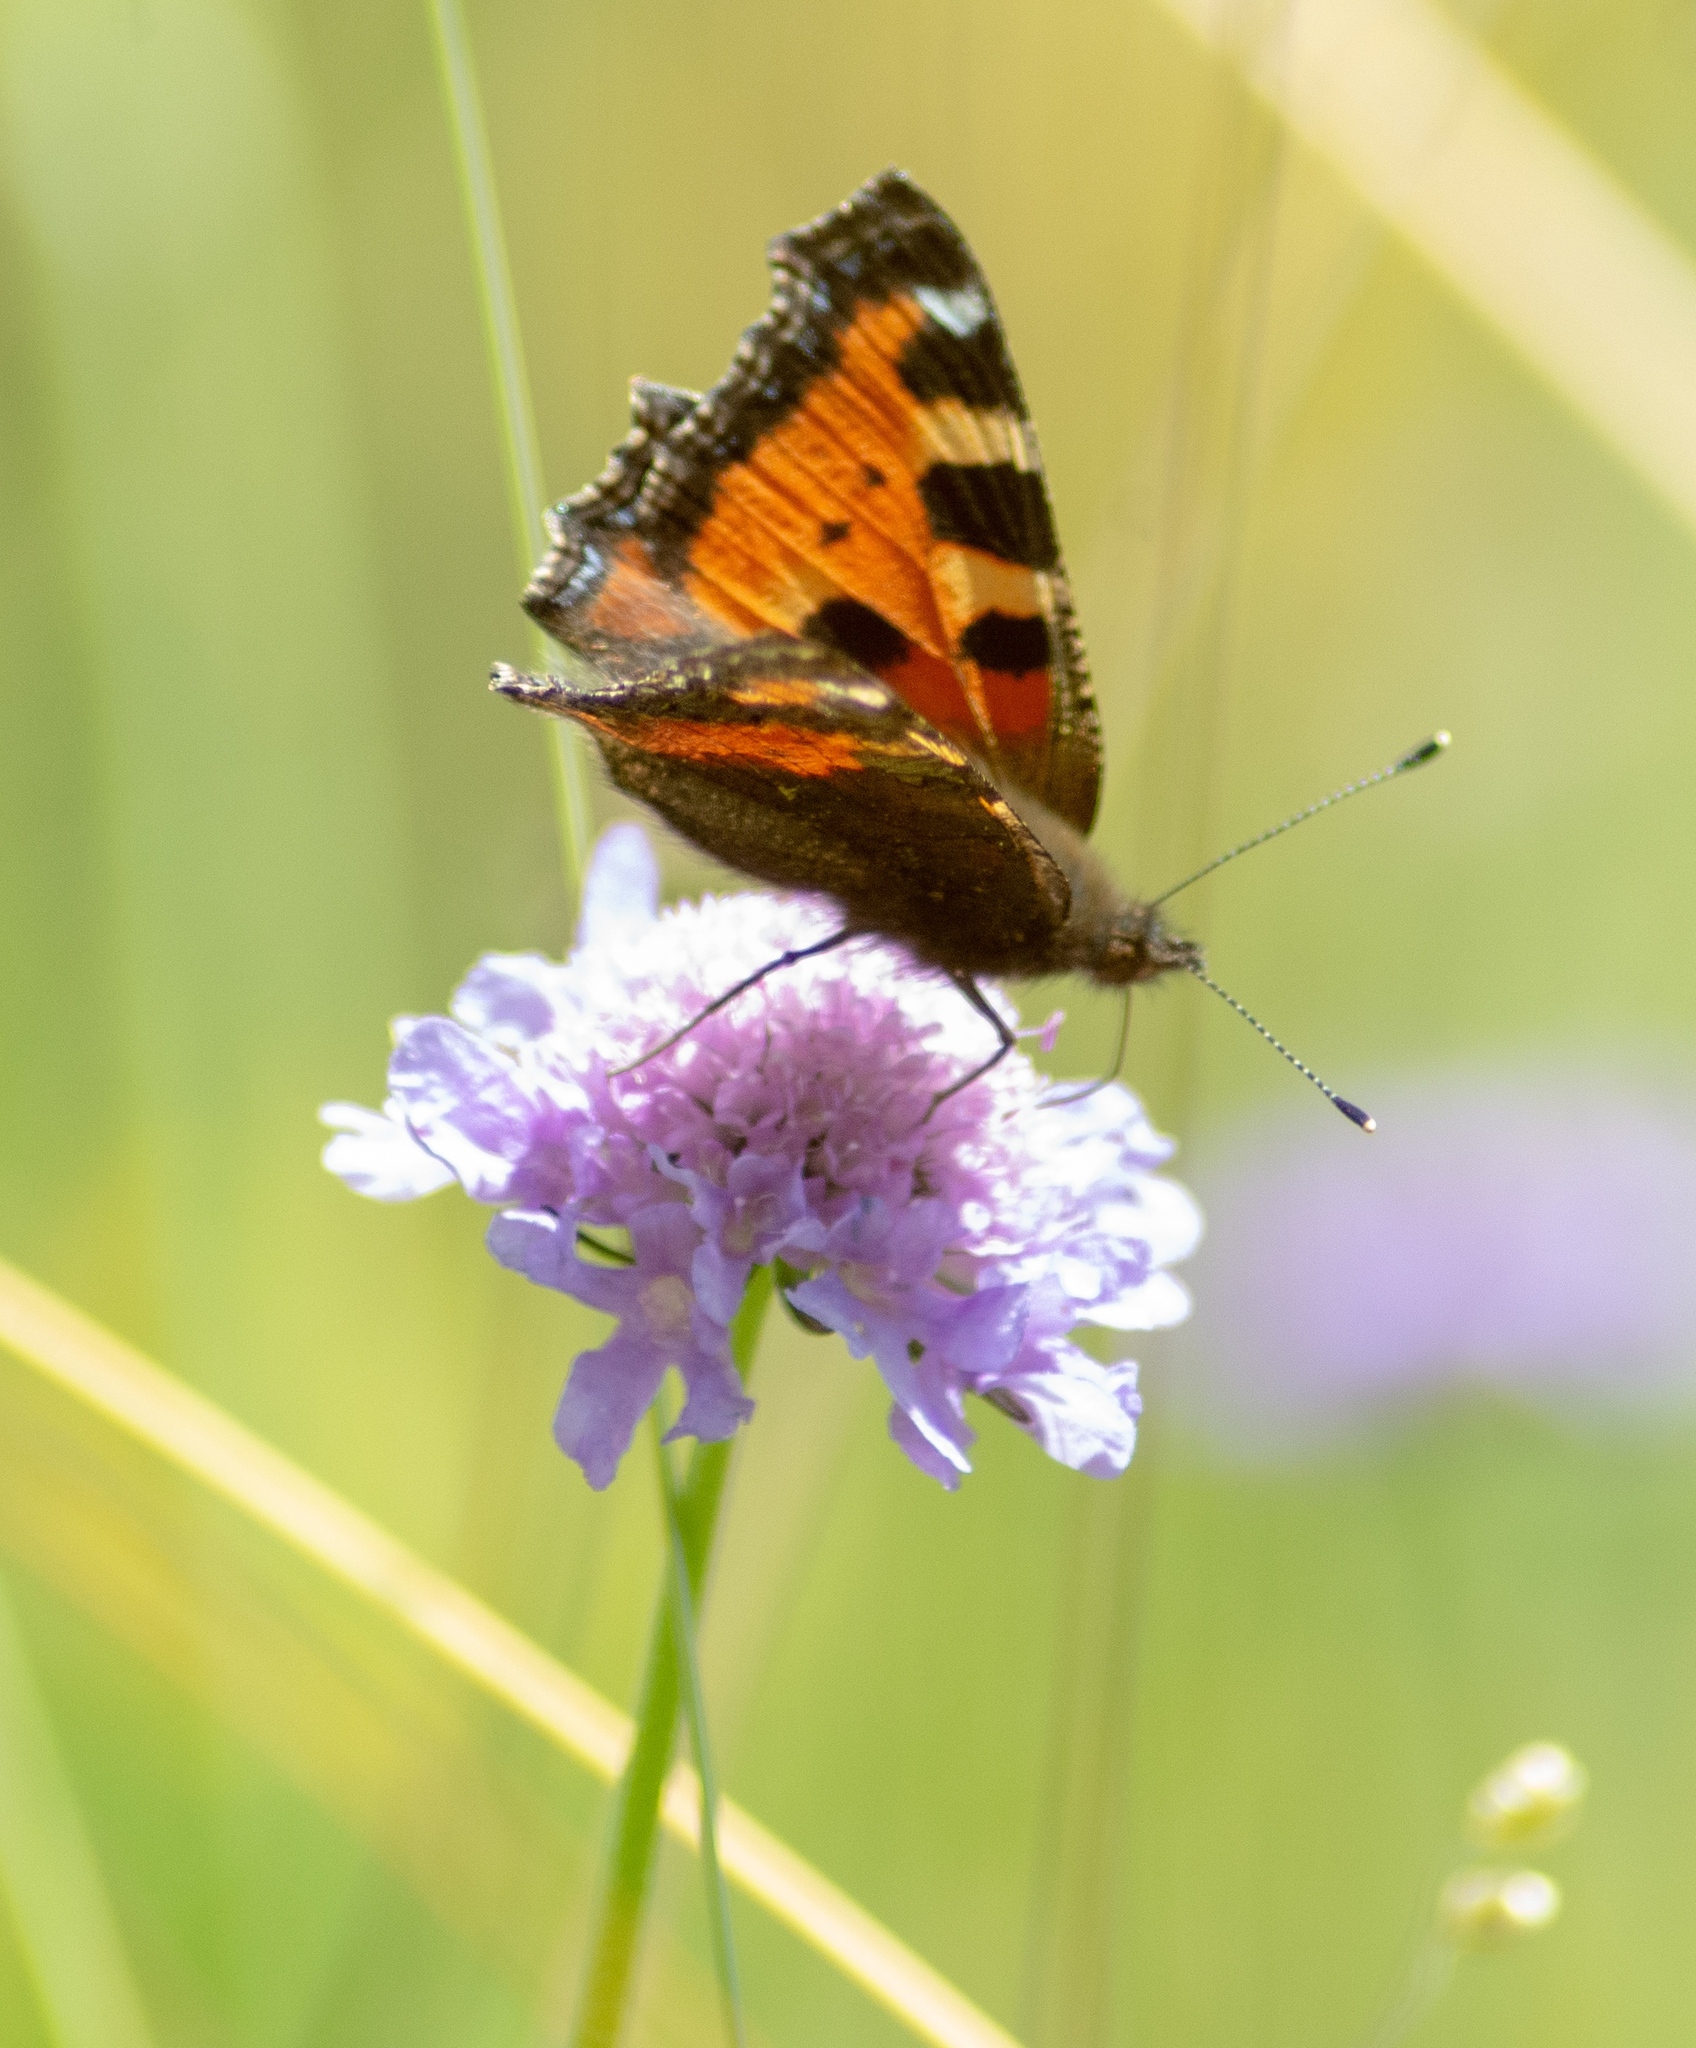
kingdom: Animalia
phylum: Arthropoda
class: Insecta
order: Lepidoptera
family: Nymphalidae
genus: Aglais
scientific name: Aglais urticae
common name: Small tortoiseshell
